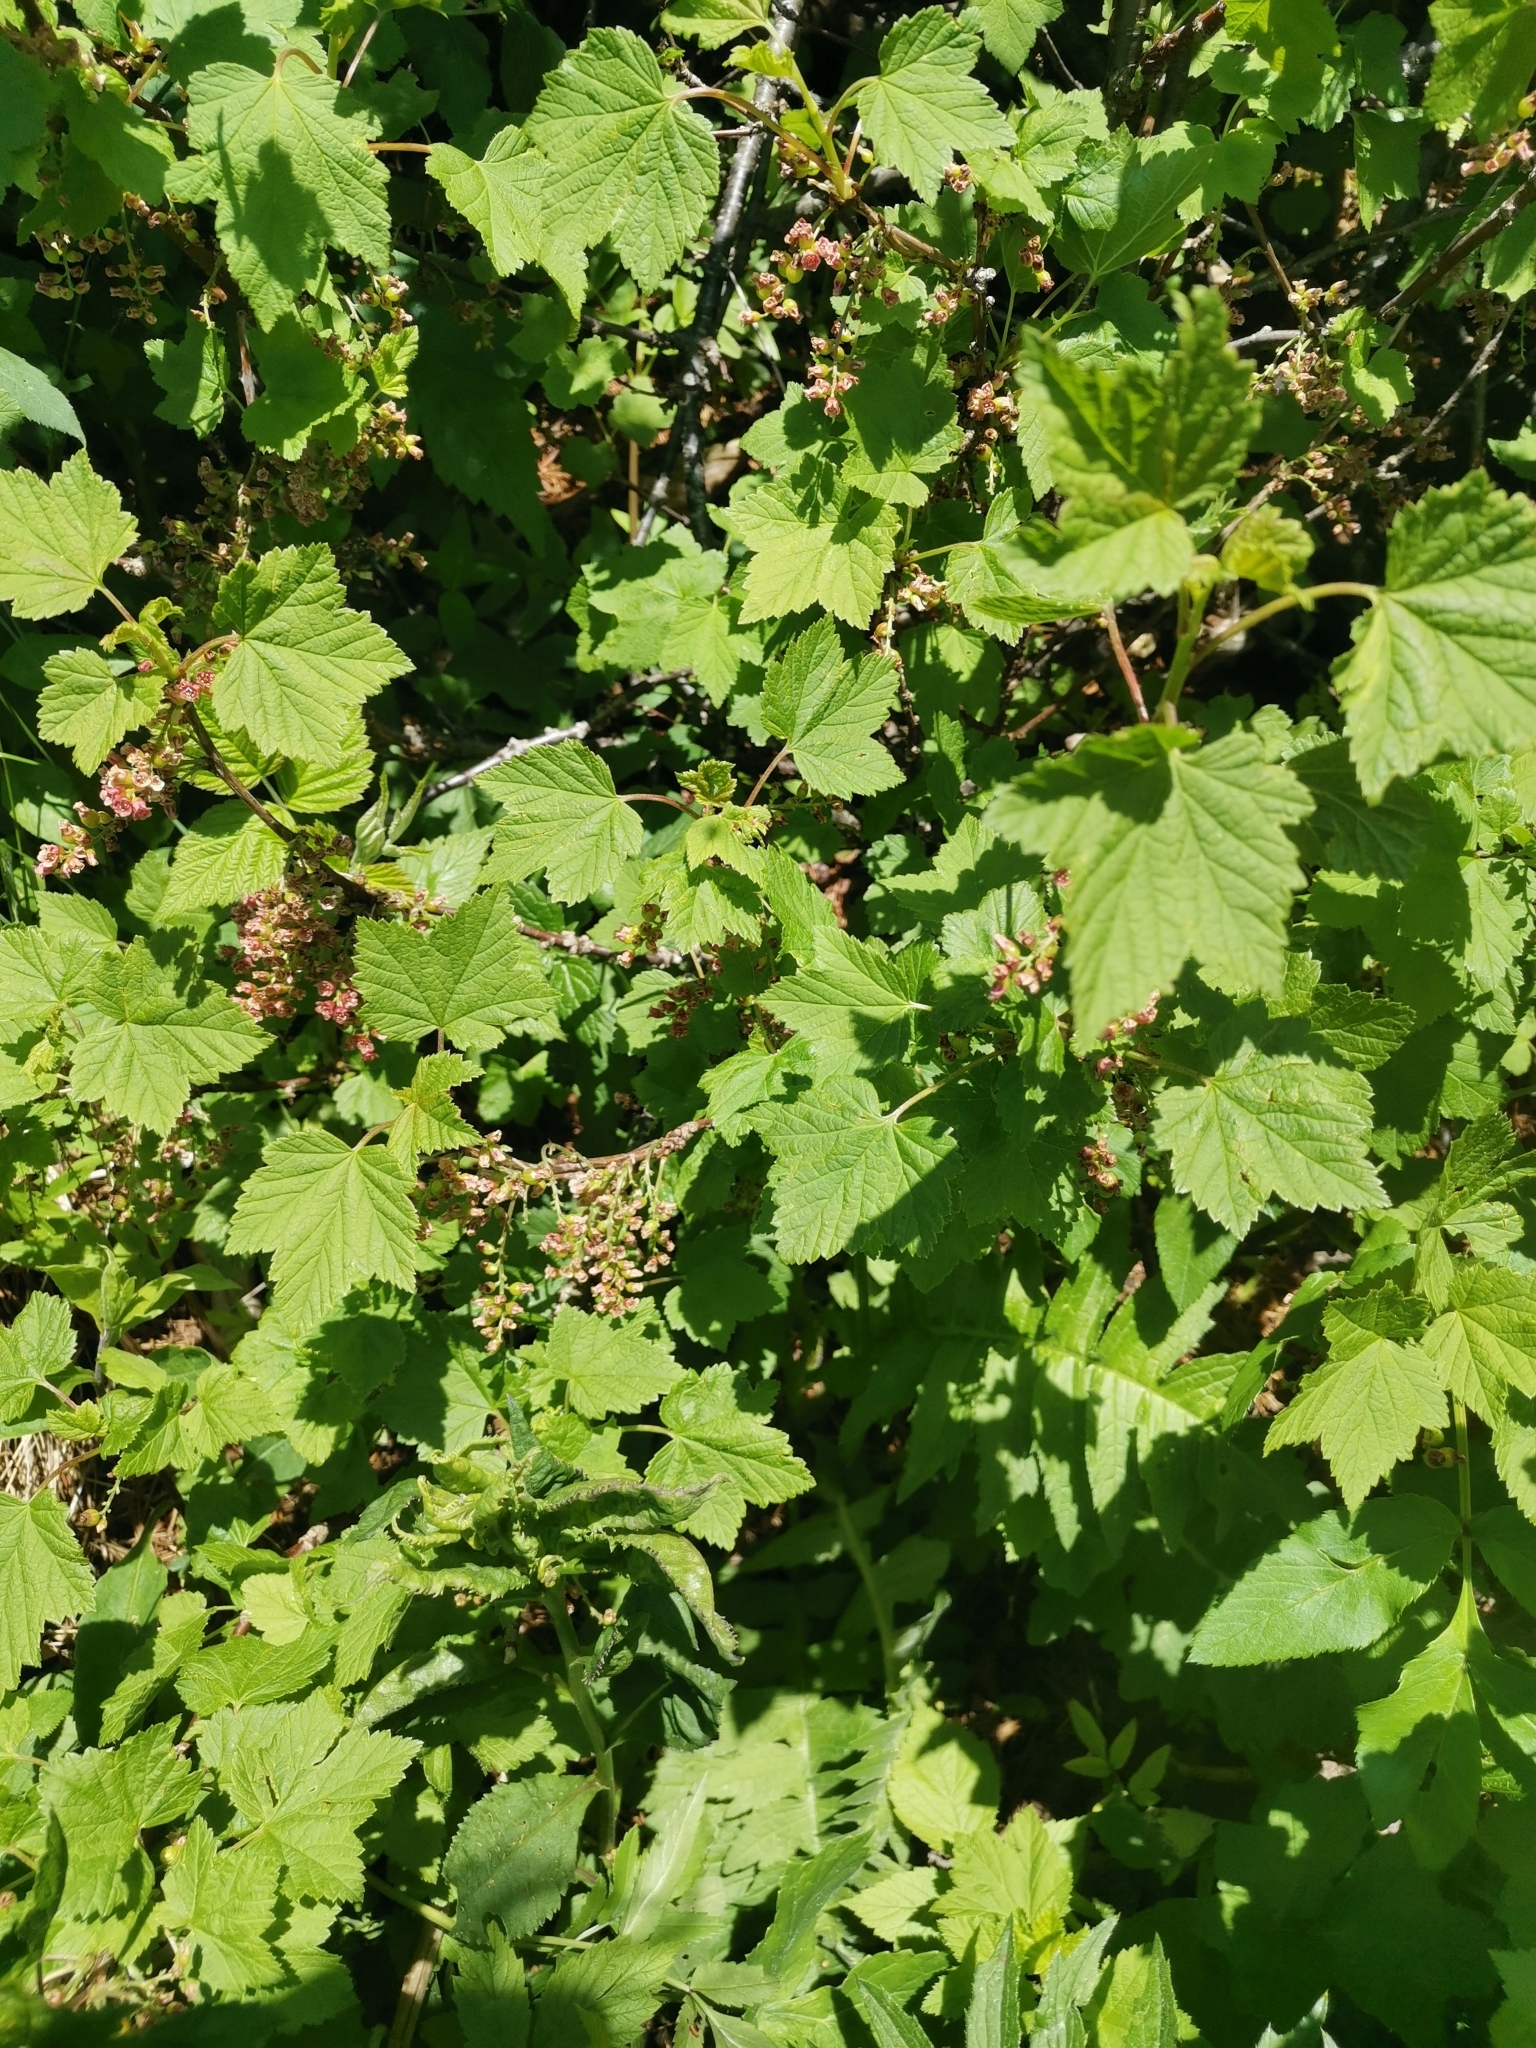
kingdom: Plantae
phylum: Tracheophyta
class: Magnoliopsida
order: Saxifragales
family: Grossulariaceae
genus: Ribes
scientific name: Ribes petraeum
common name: Rock currant
